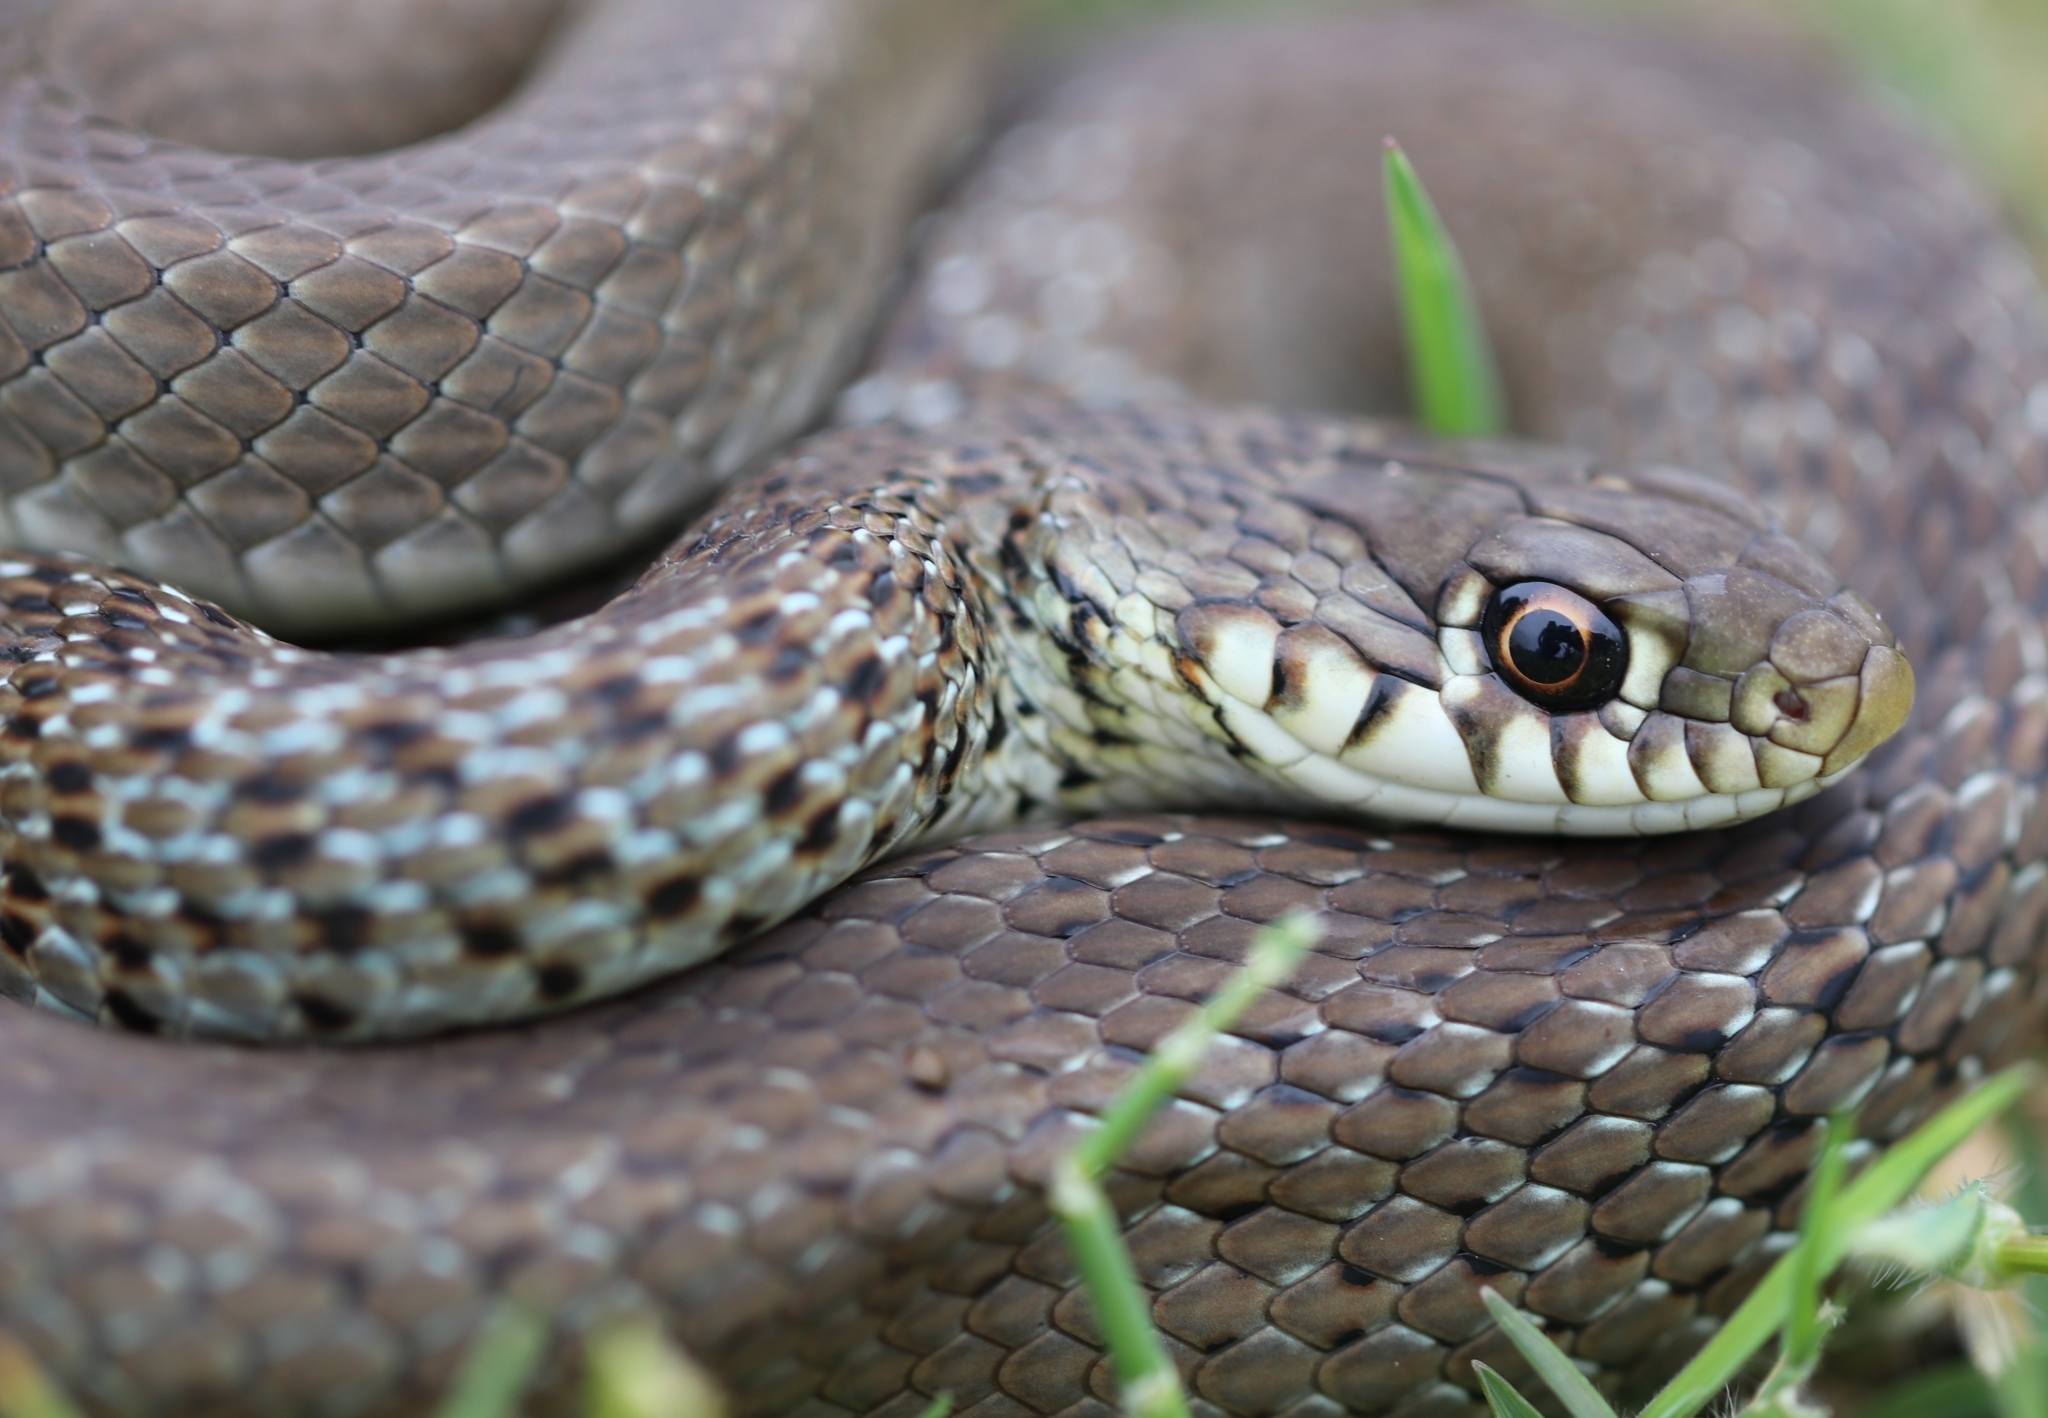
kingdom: Animalia
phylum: Chordata
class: Squamata
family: Colubridae
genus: Hierophis
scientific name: Hierophis gemonensis
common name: Balkan whip snake
